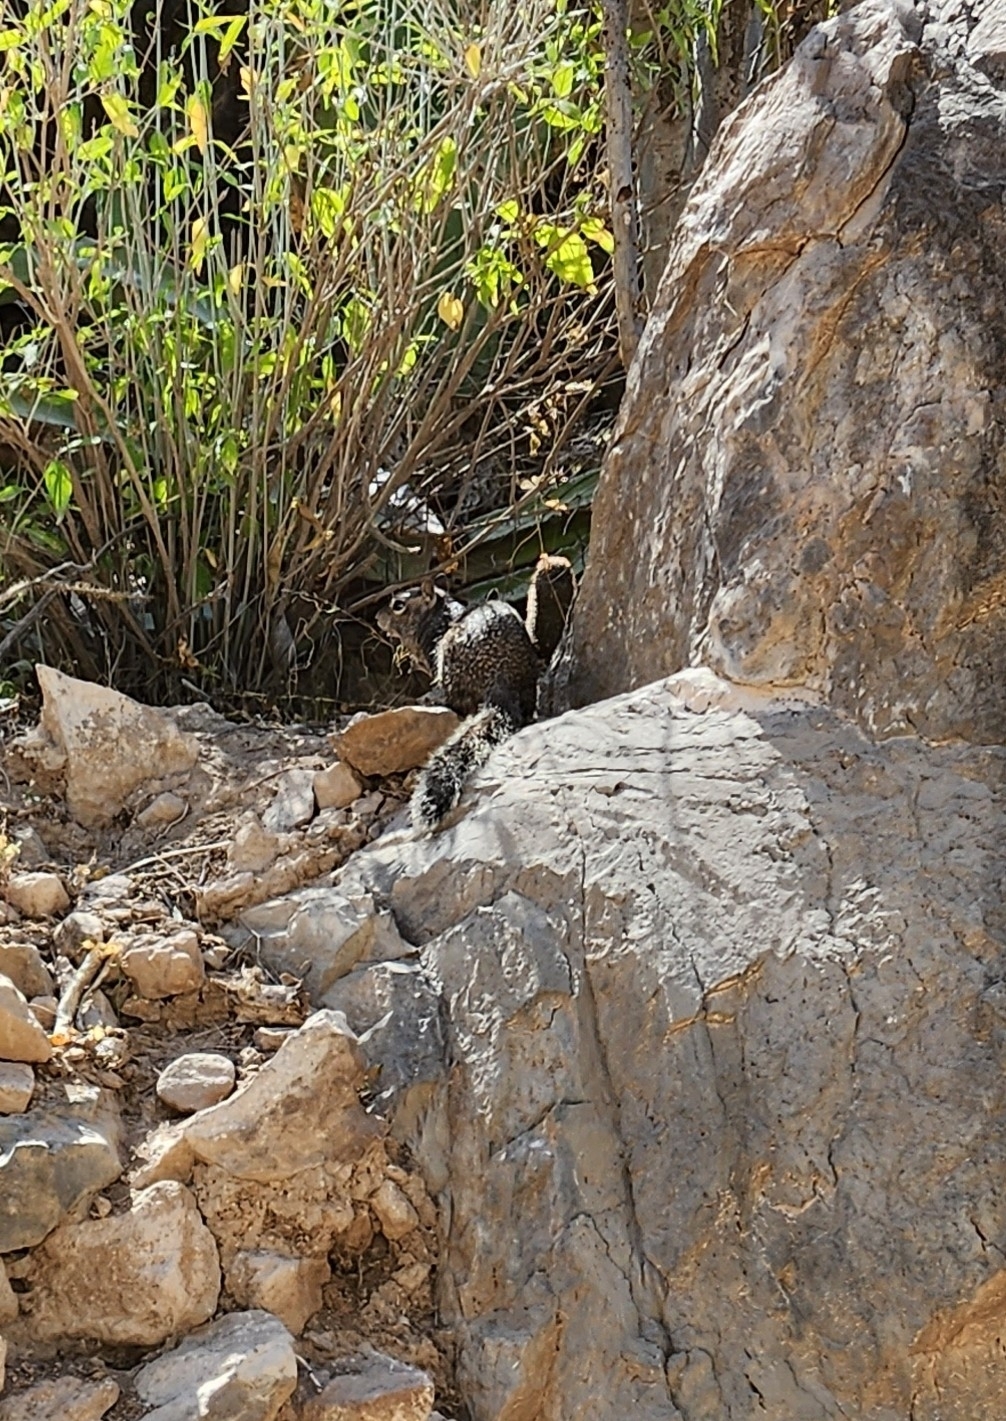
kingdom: Animalia
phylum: Chordata
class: Mammalia
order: Rodentia
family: Sciuridae
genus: Otospermophilus
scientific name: Otospermophilus atricapillus
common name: Baja california rock squirrel
